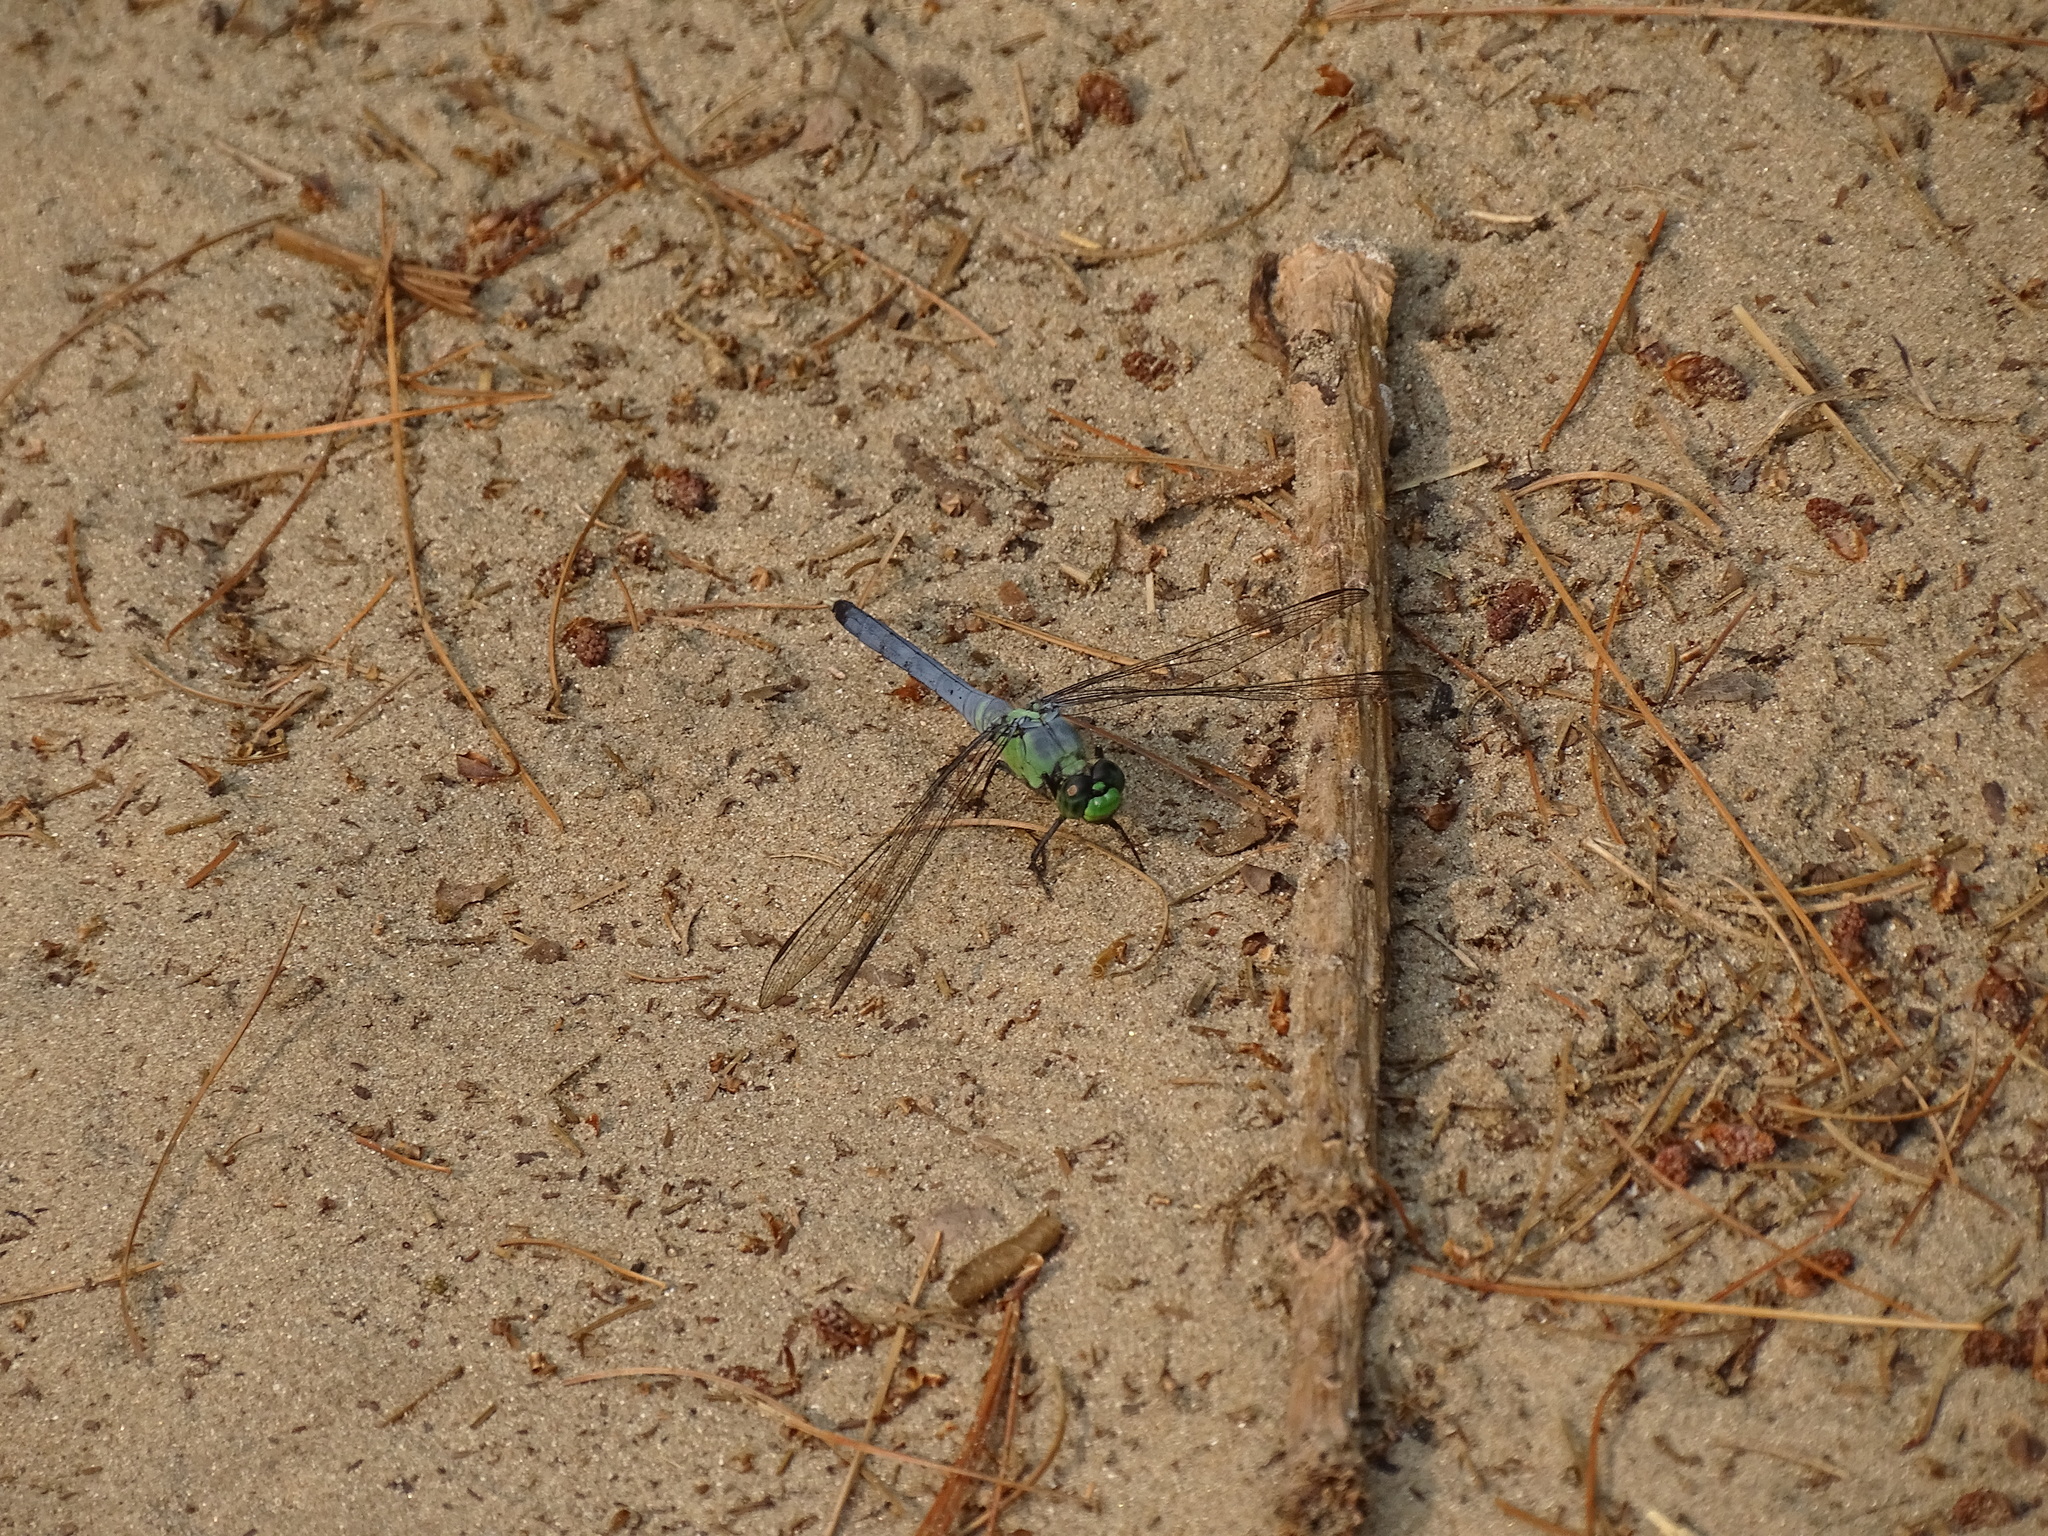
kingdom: Animalia
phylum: Arthropoda
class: Insecta
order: Odonata
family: Libellulidae
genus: Erythemis
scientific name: Erythemis simplicicollis
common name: Eastern pondhawk
